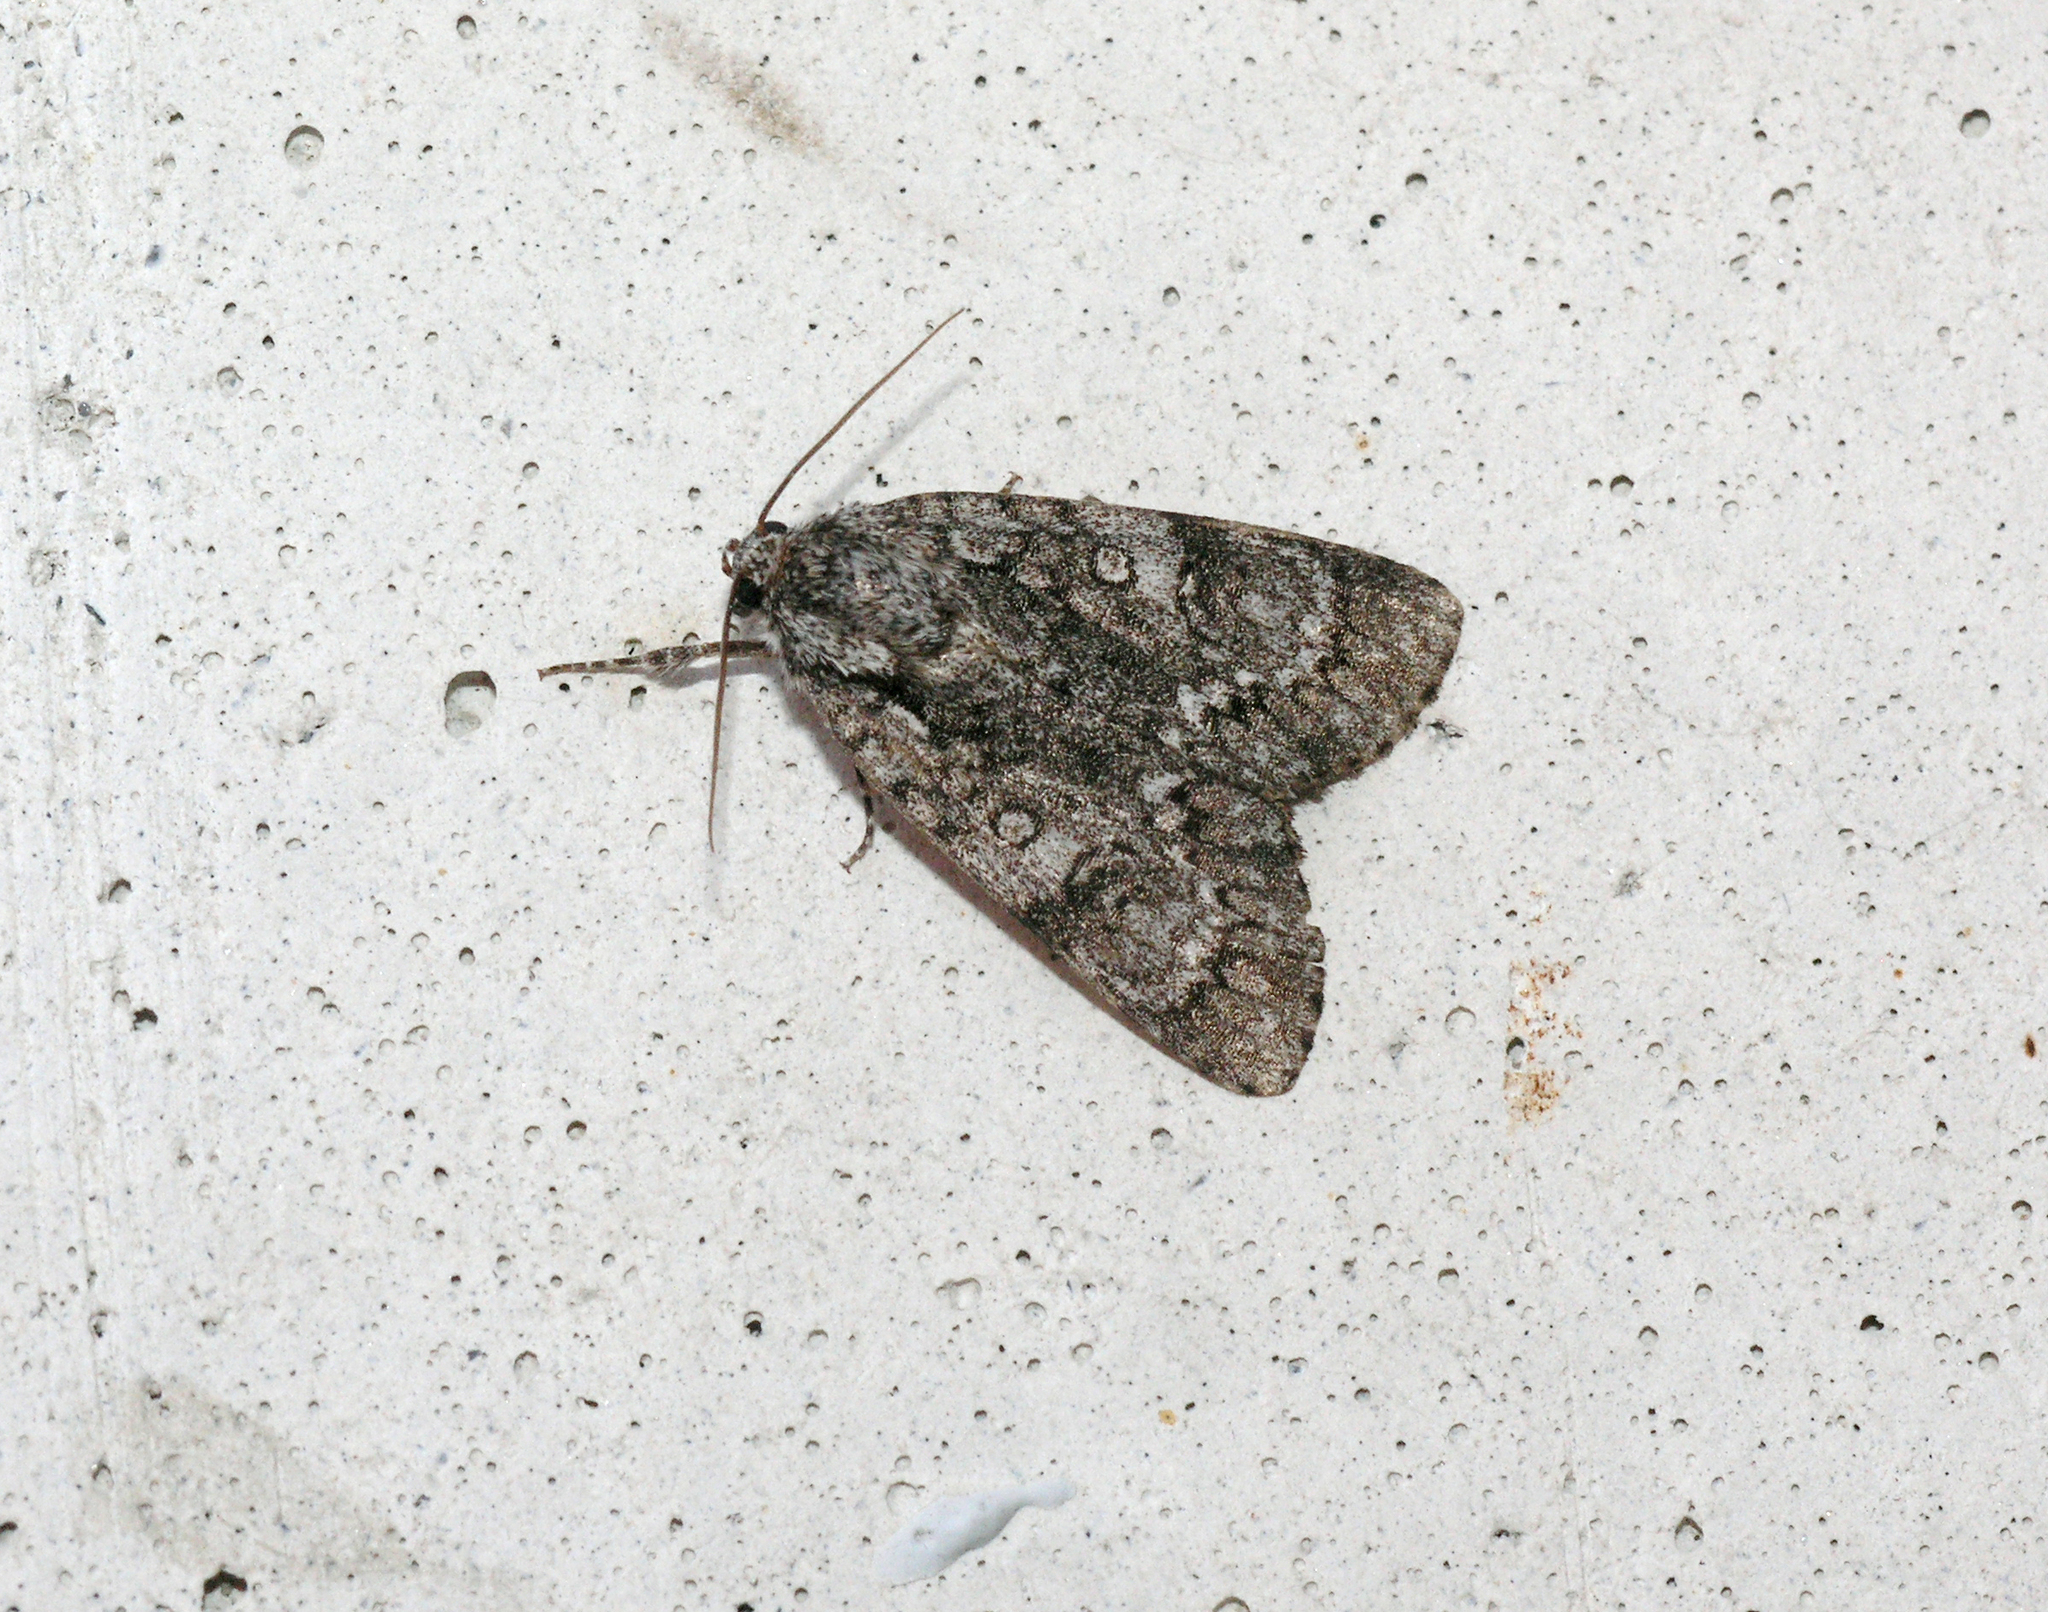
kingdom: Animalia
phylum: Arthropoda
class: Insecta
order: Lepidoptera
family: Noctuidae
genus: Acronicta
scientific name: Acronicta rumicis
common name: Knot grass
